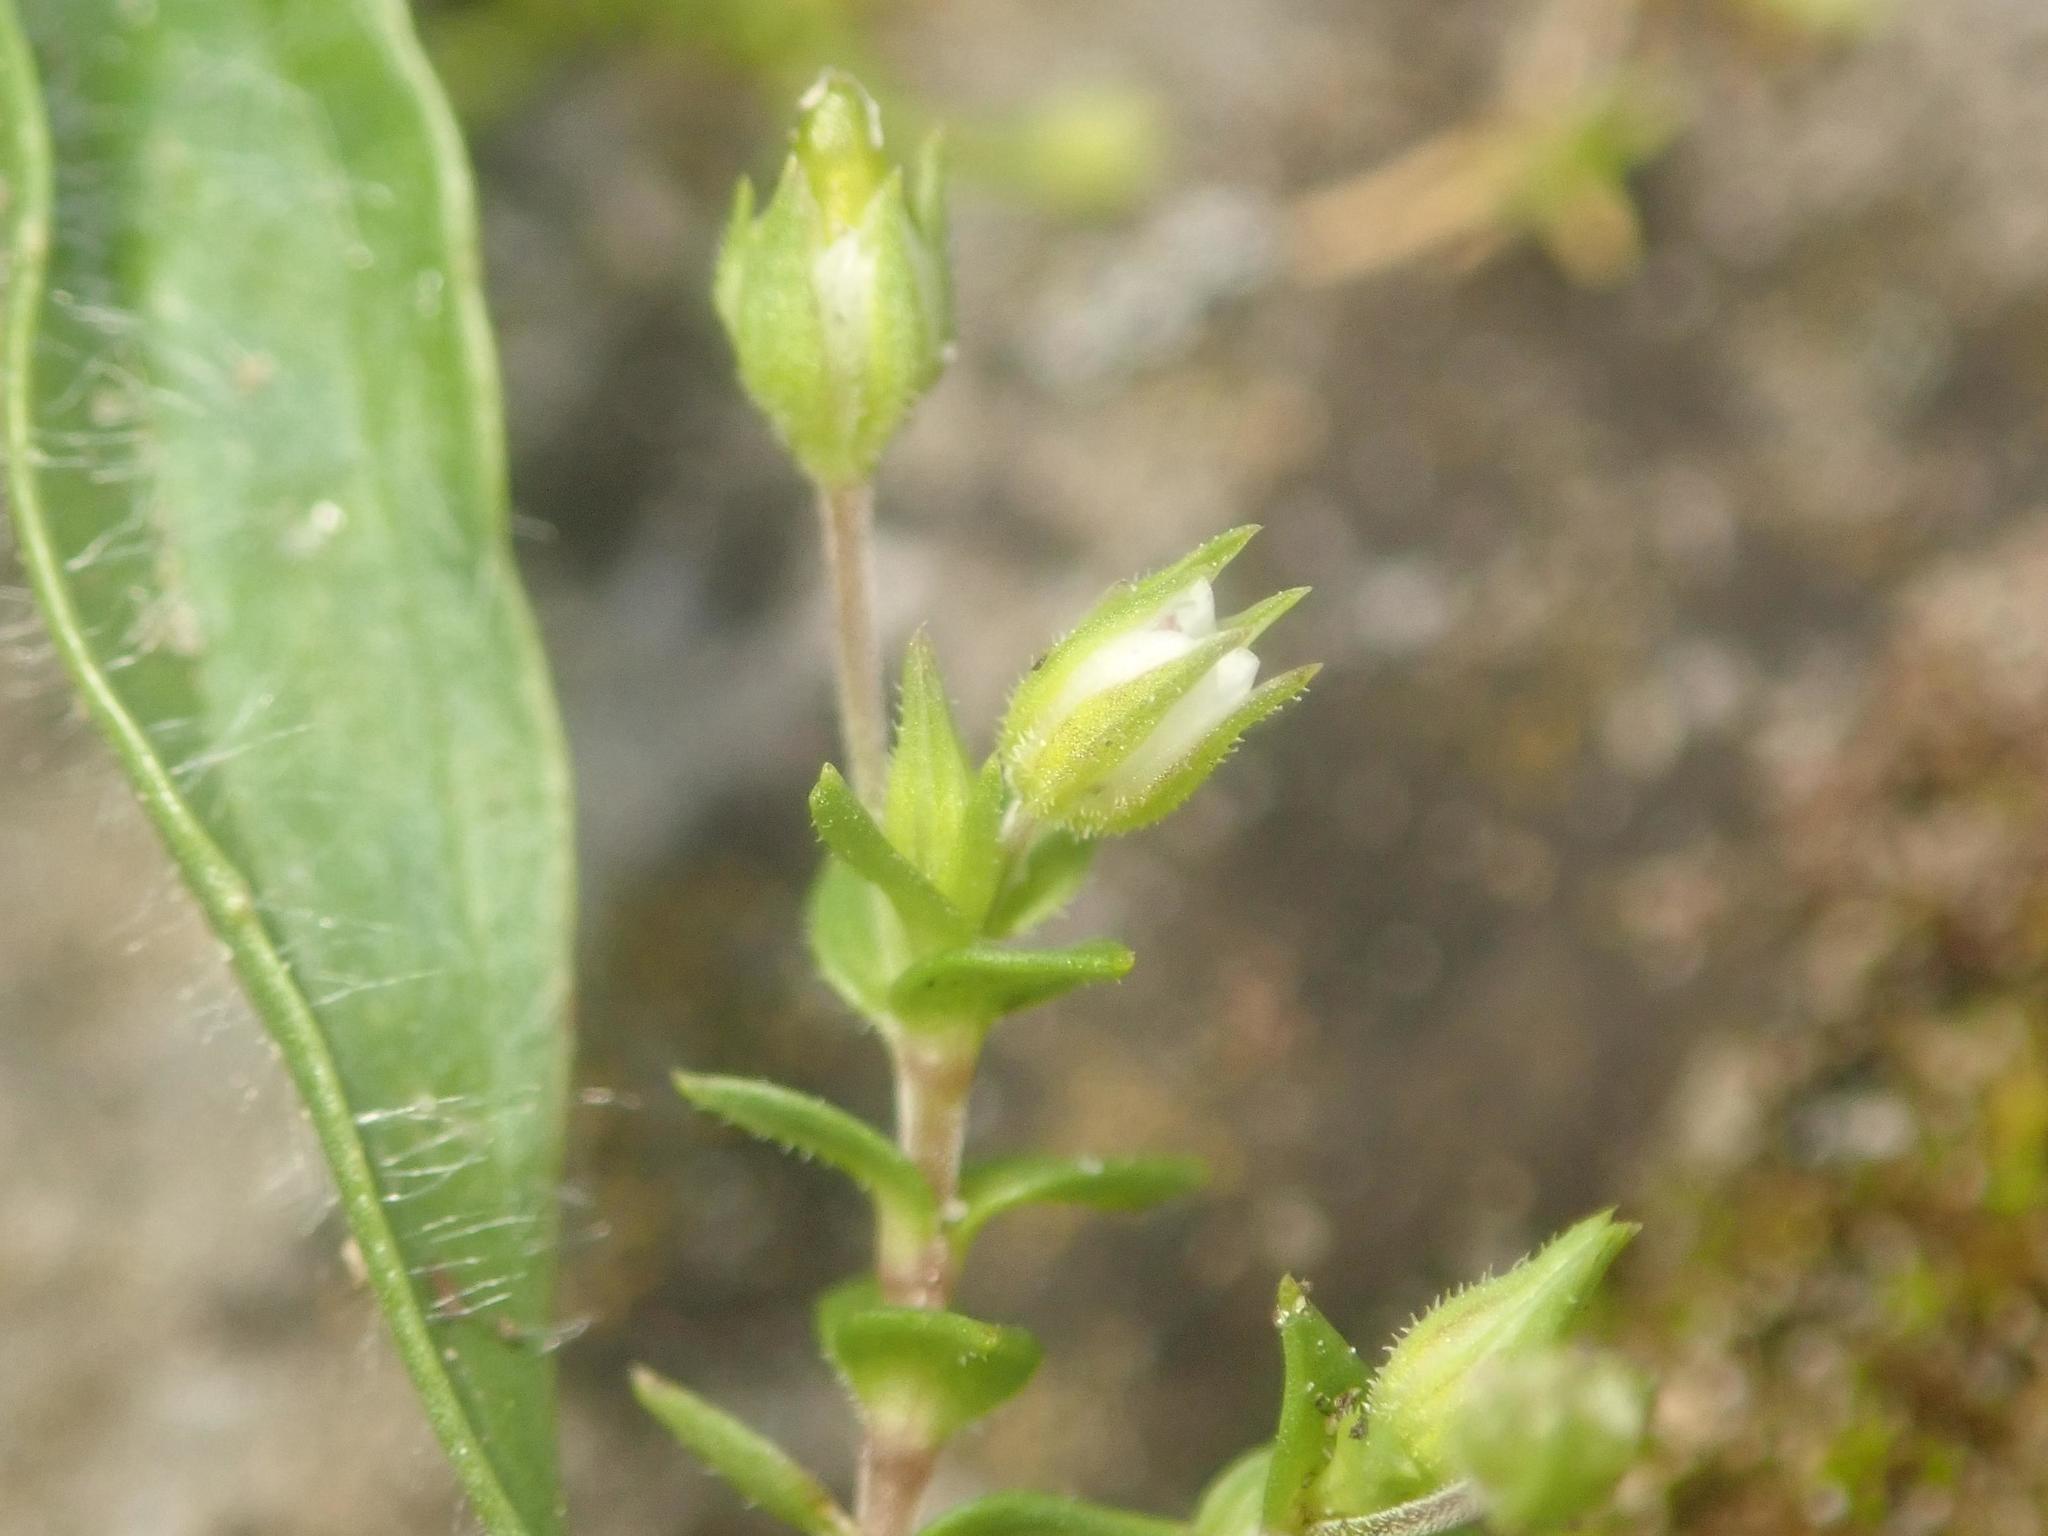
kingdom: Plantae
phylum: Tracheophyta
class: Magnoliopsida
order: Caryophyllales
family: Caryophyllaceae
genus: Arenaria
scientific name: Arenaria serpyllifolia
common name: Thyme-leaved sandwort
